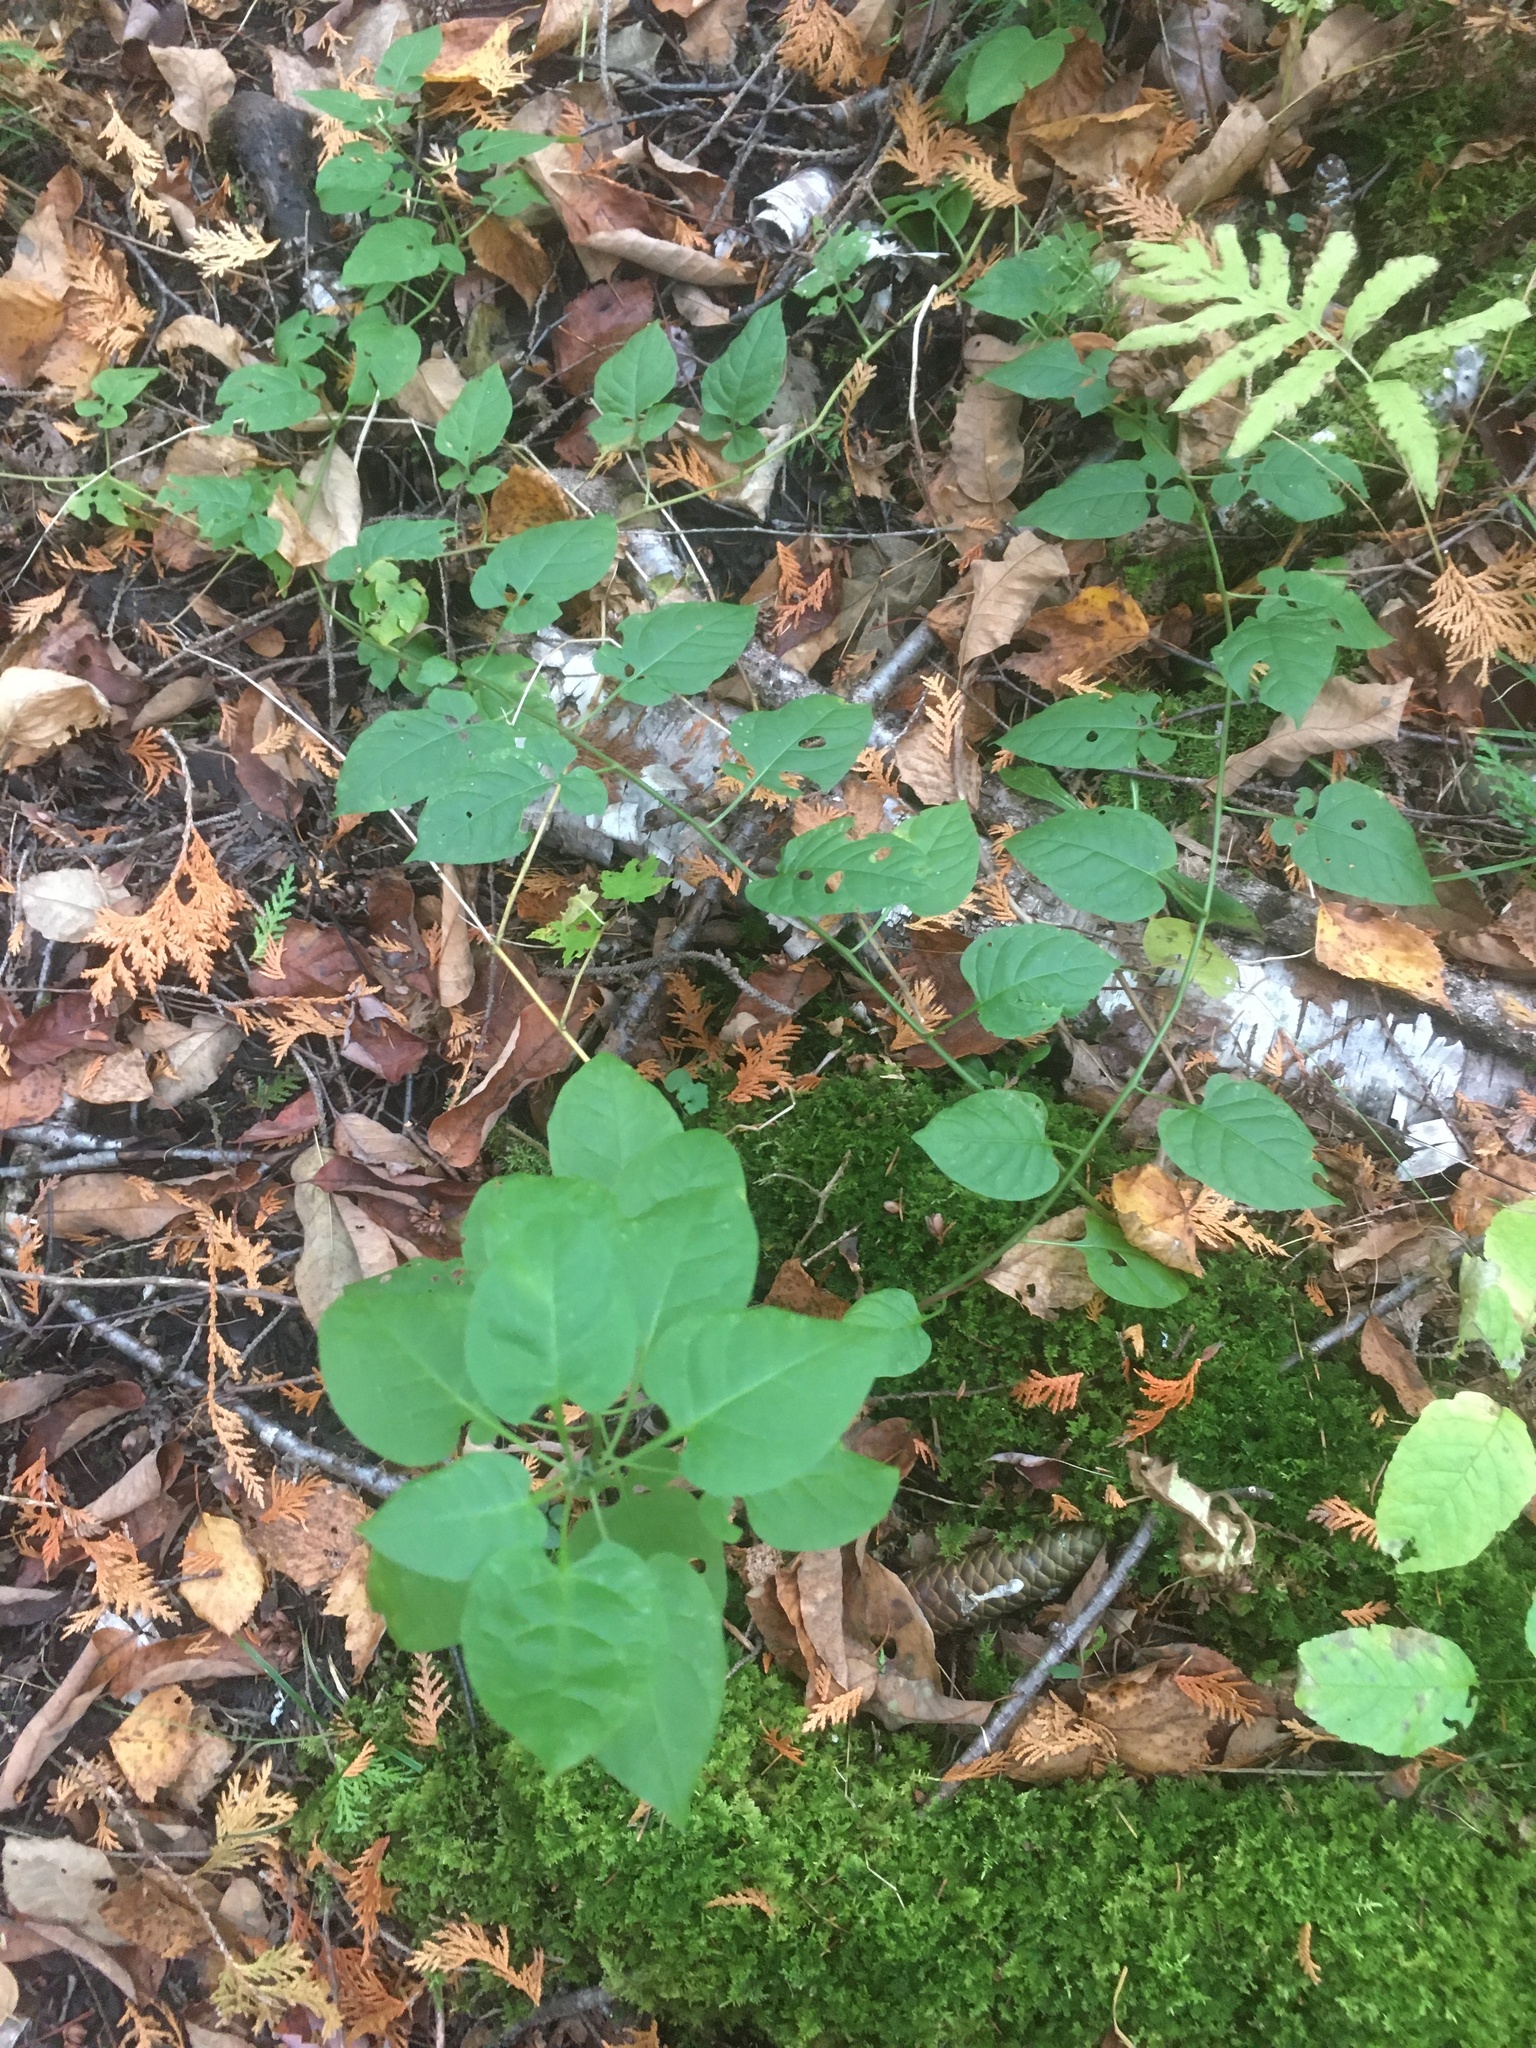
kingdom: Plantae
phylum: Tracheophyta
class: Magnoliopsida
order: Solanales
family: Solanaceae
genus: Solanum
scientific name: Solanum dulcamara
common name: Climbing nightshade
